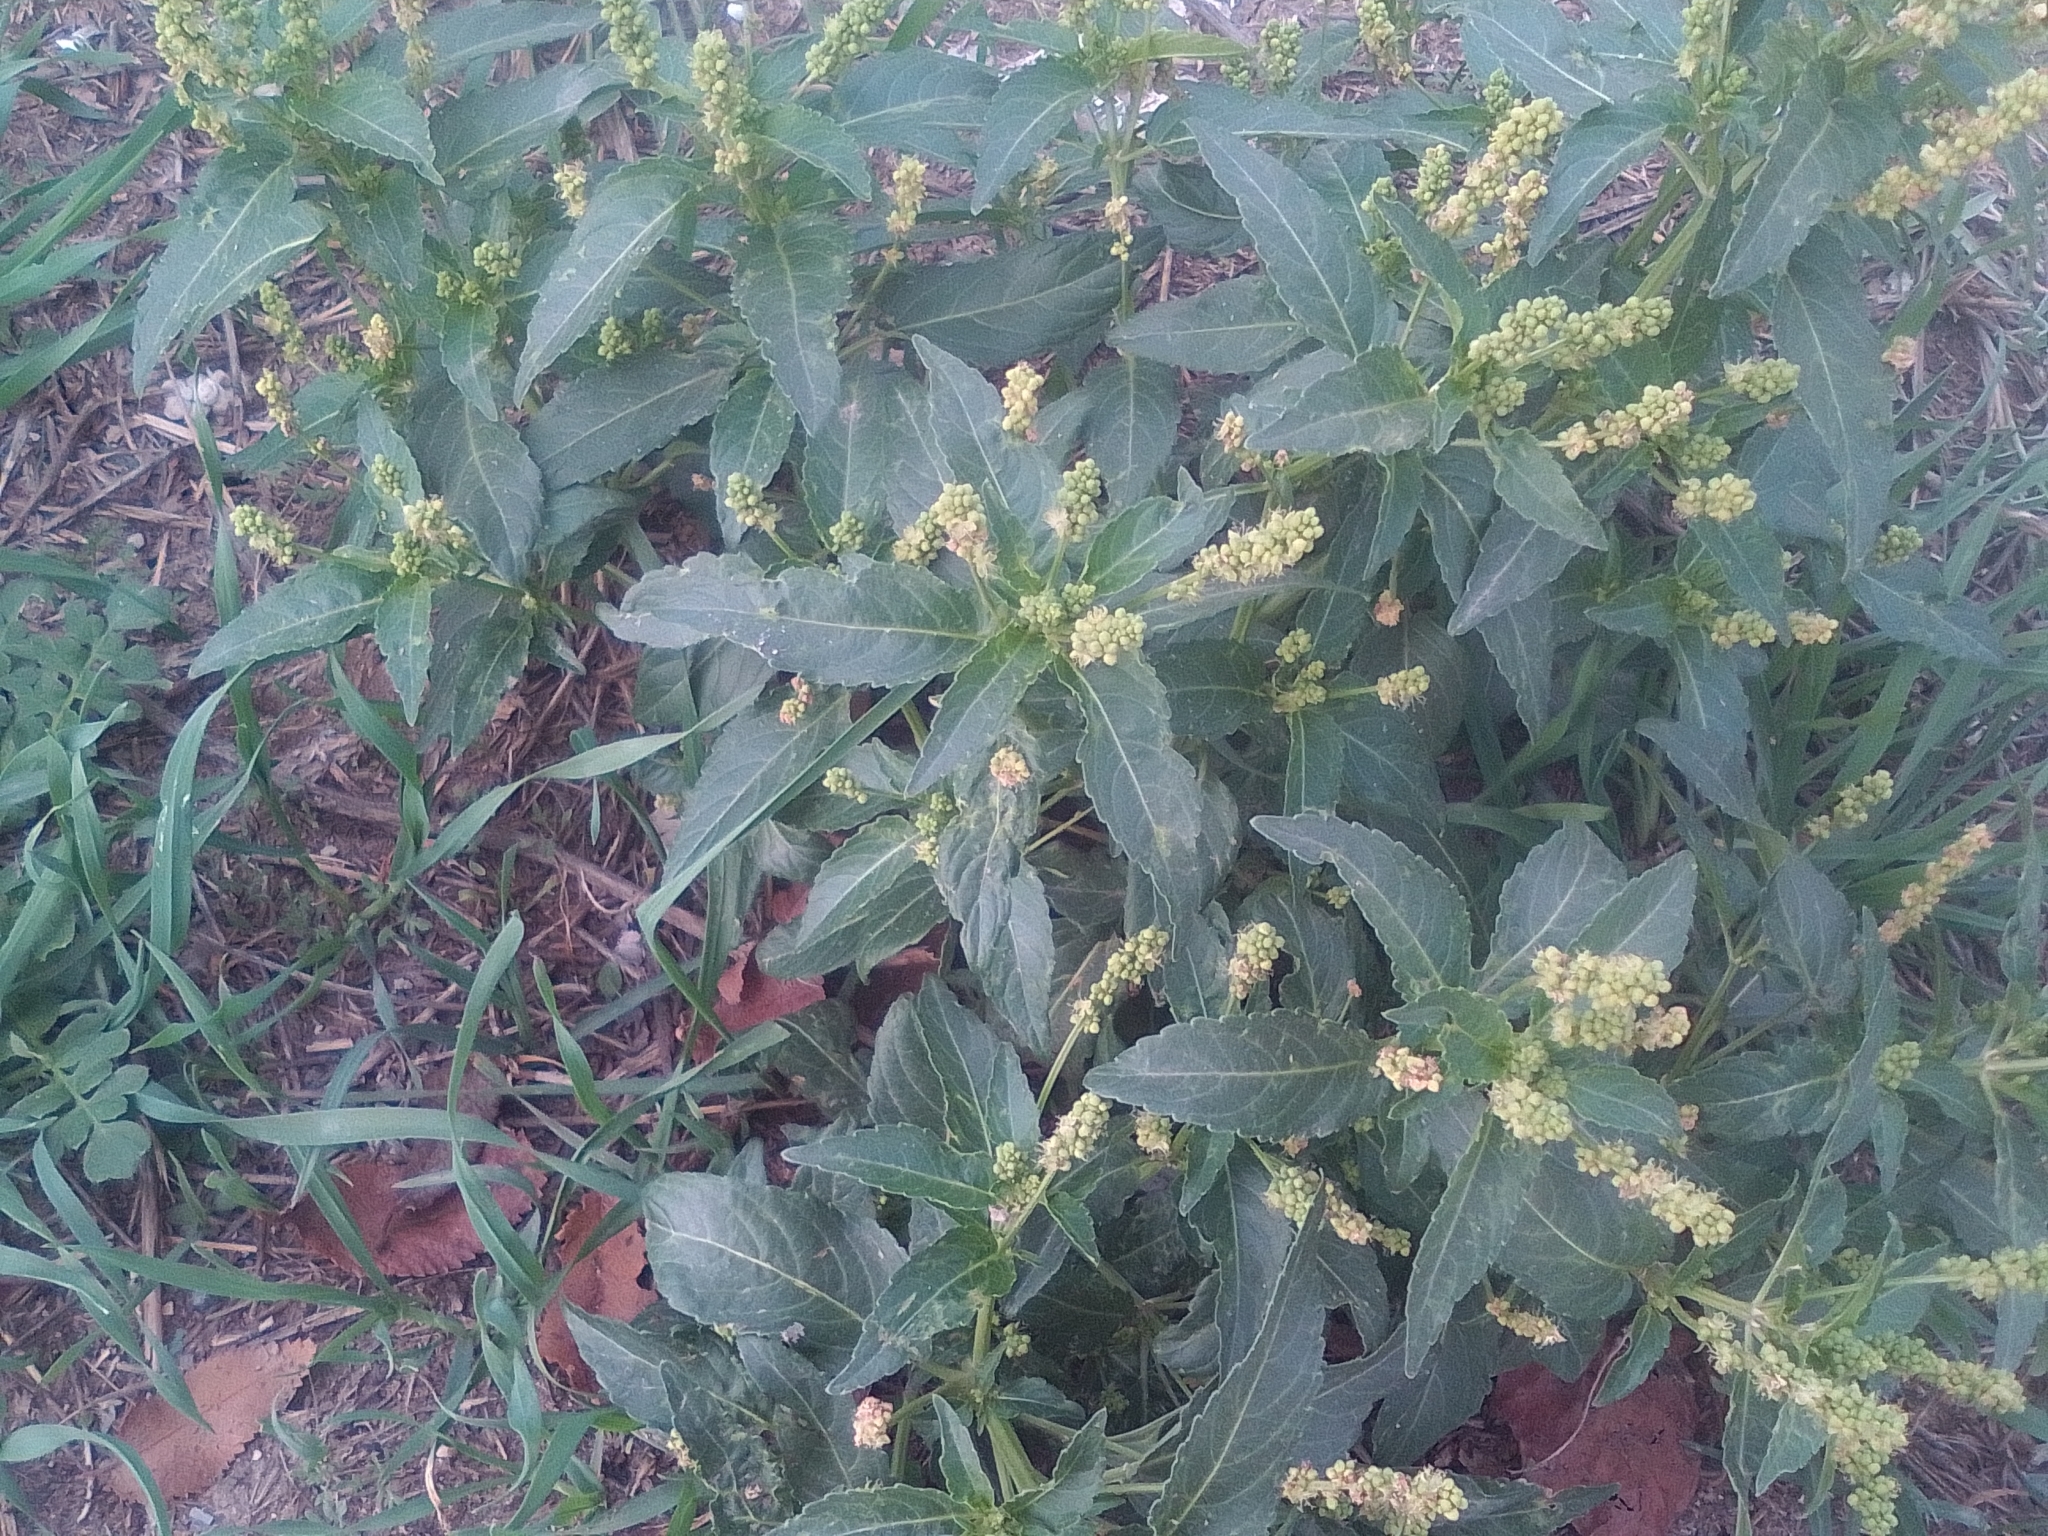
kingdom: Plantae
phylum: Tracheophyta
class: Magnoliopsida
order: Malpighiales
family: Euphorbiaceae
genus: Mercurialis
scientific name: Mercurialis annua
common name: Annual mercury
